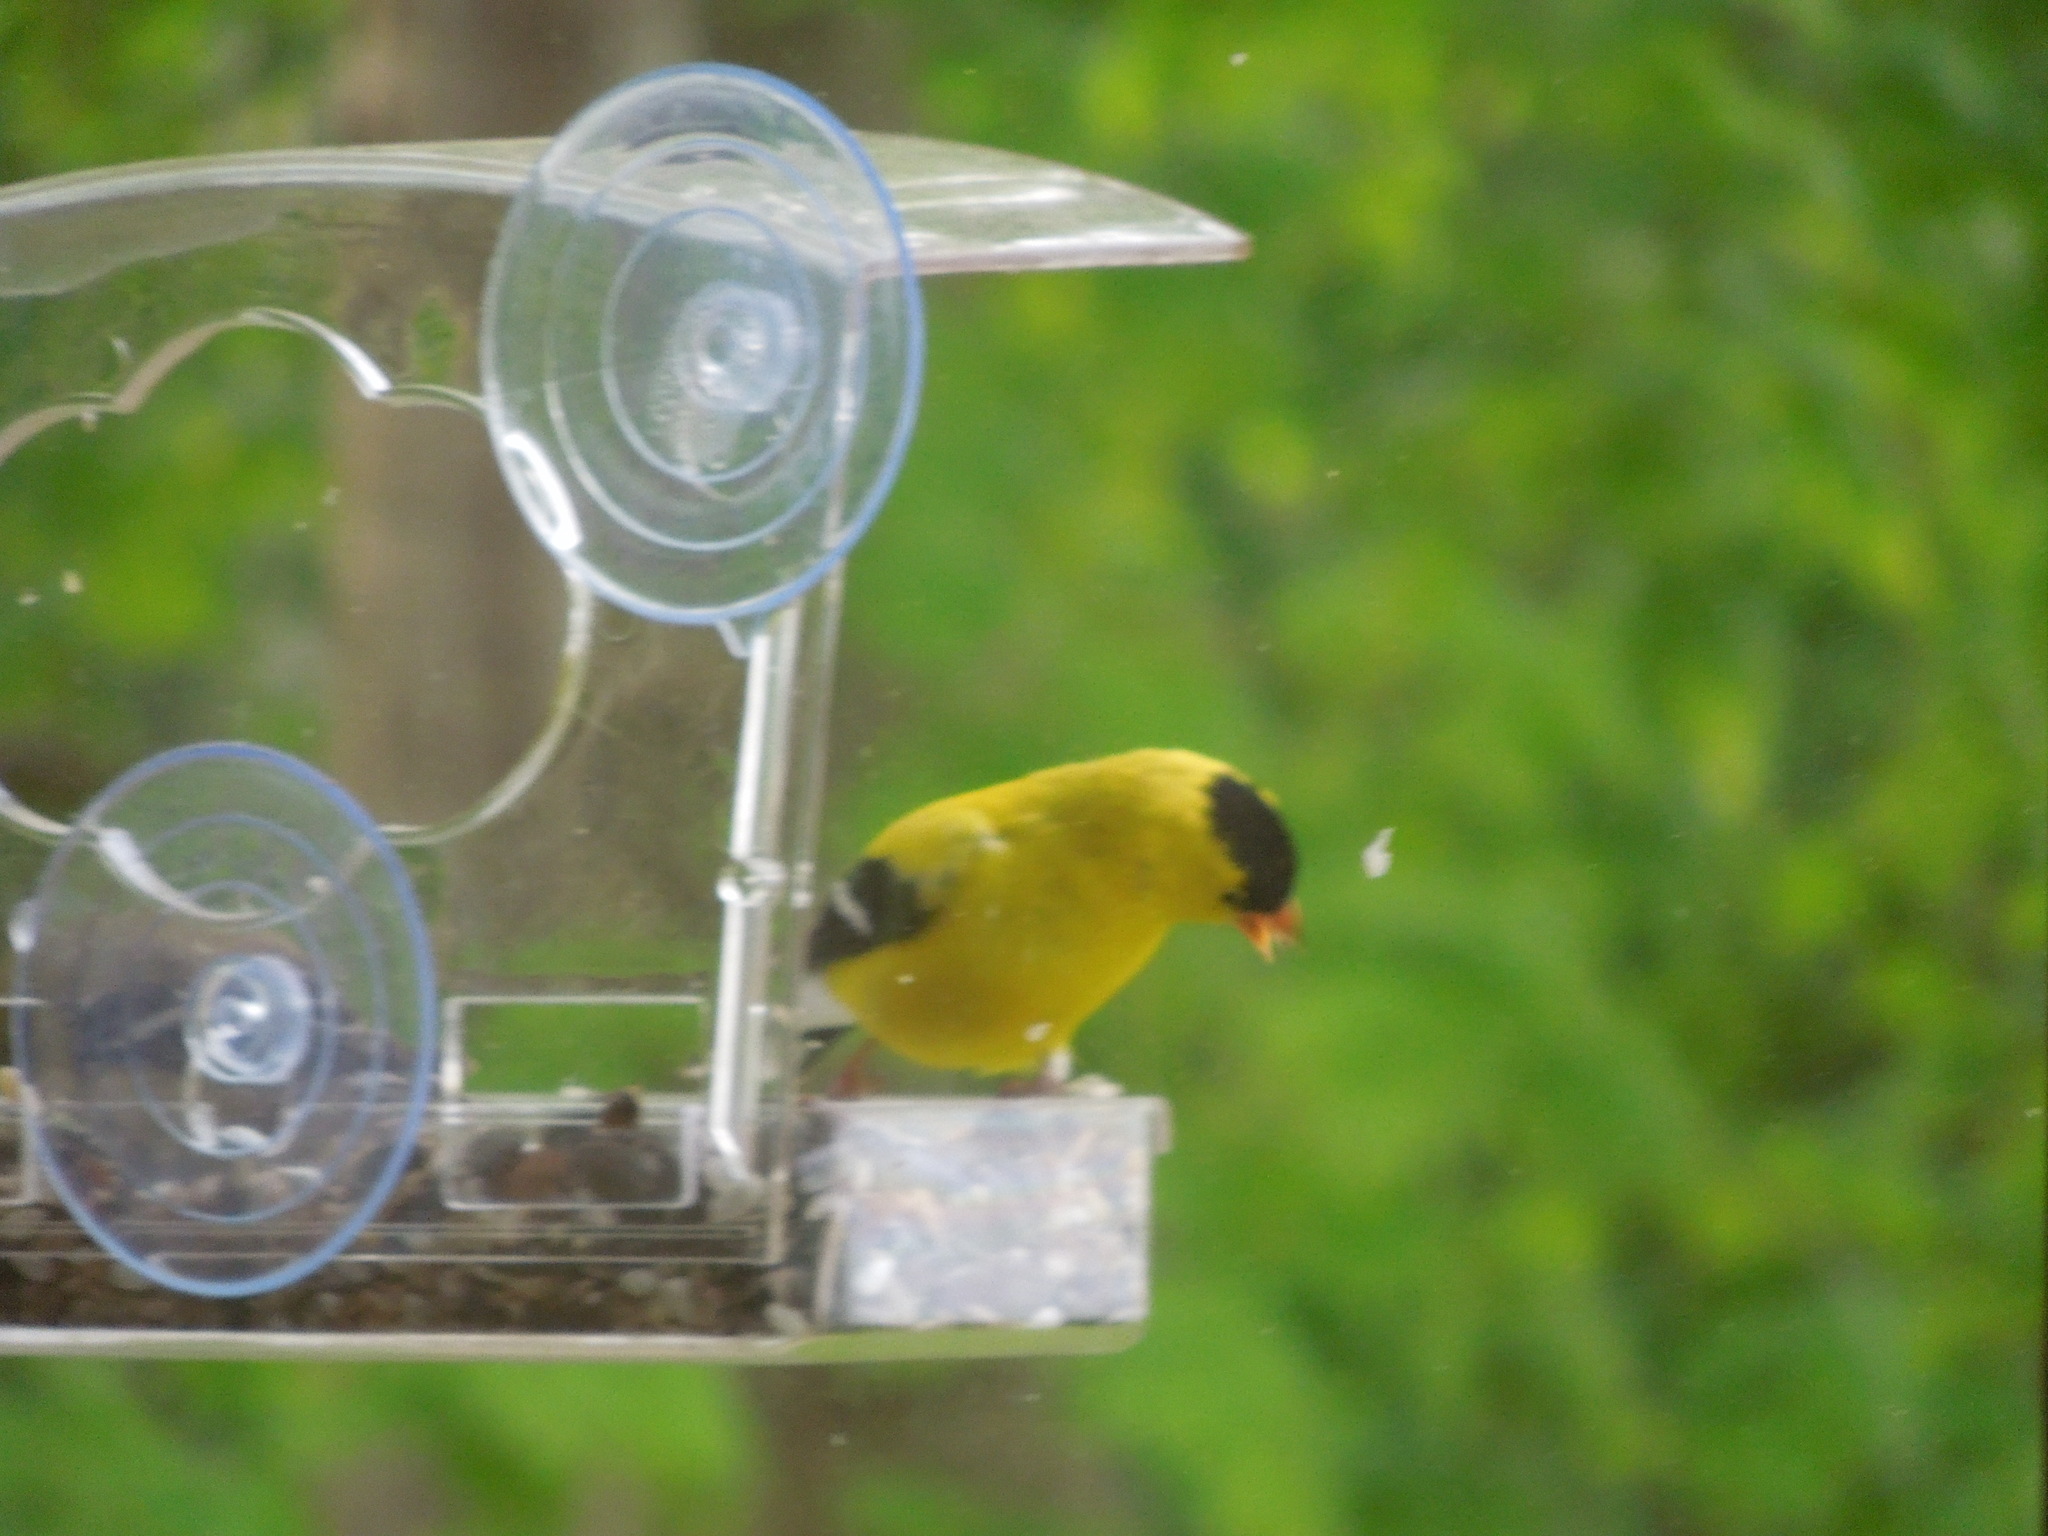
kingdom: Animalia
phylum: Chordata
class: Aves
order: Passeriformes
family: Fringillidae
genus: Spinus
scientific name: Spinus tristis
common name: American goldfinch
